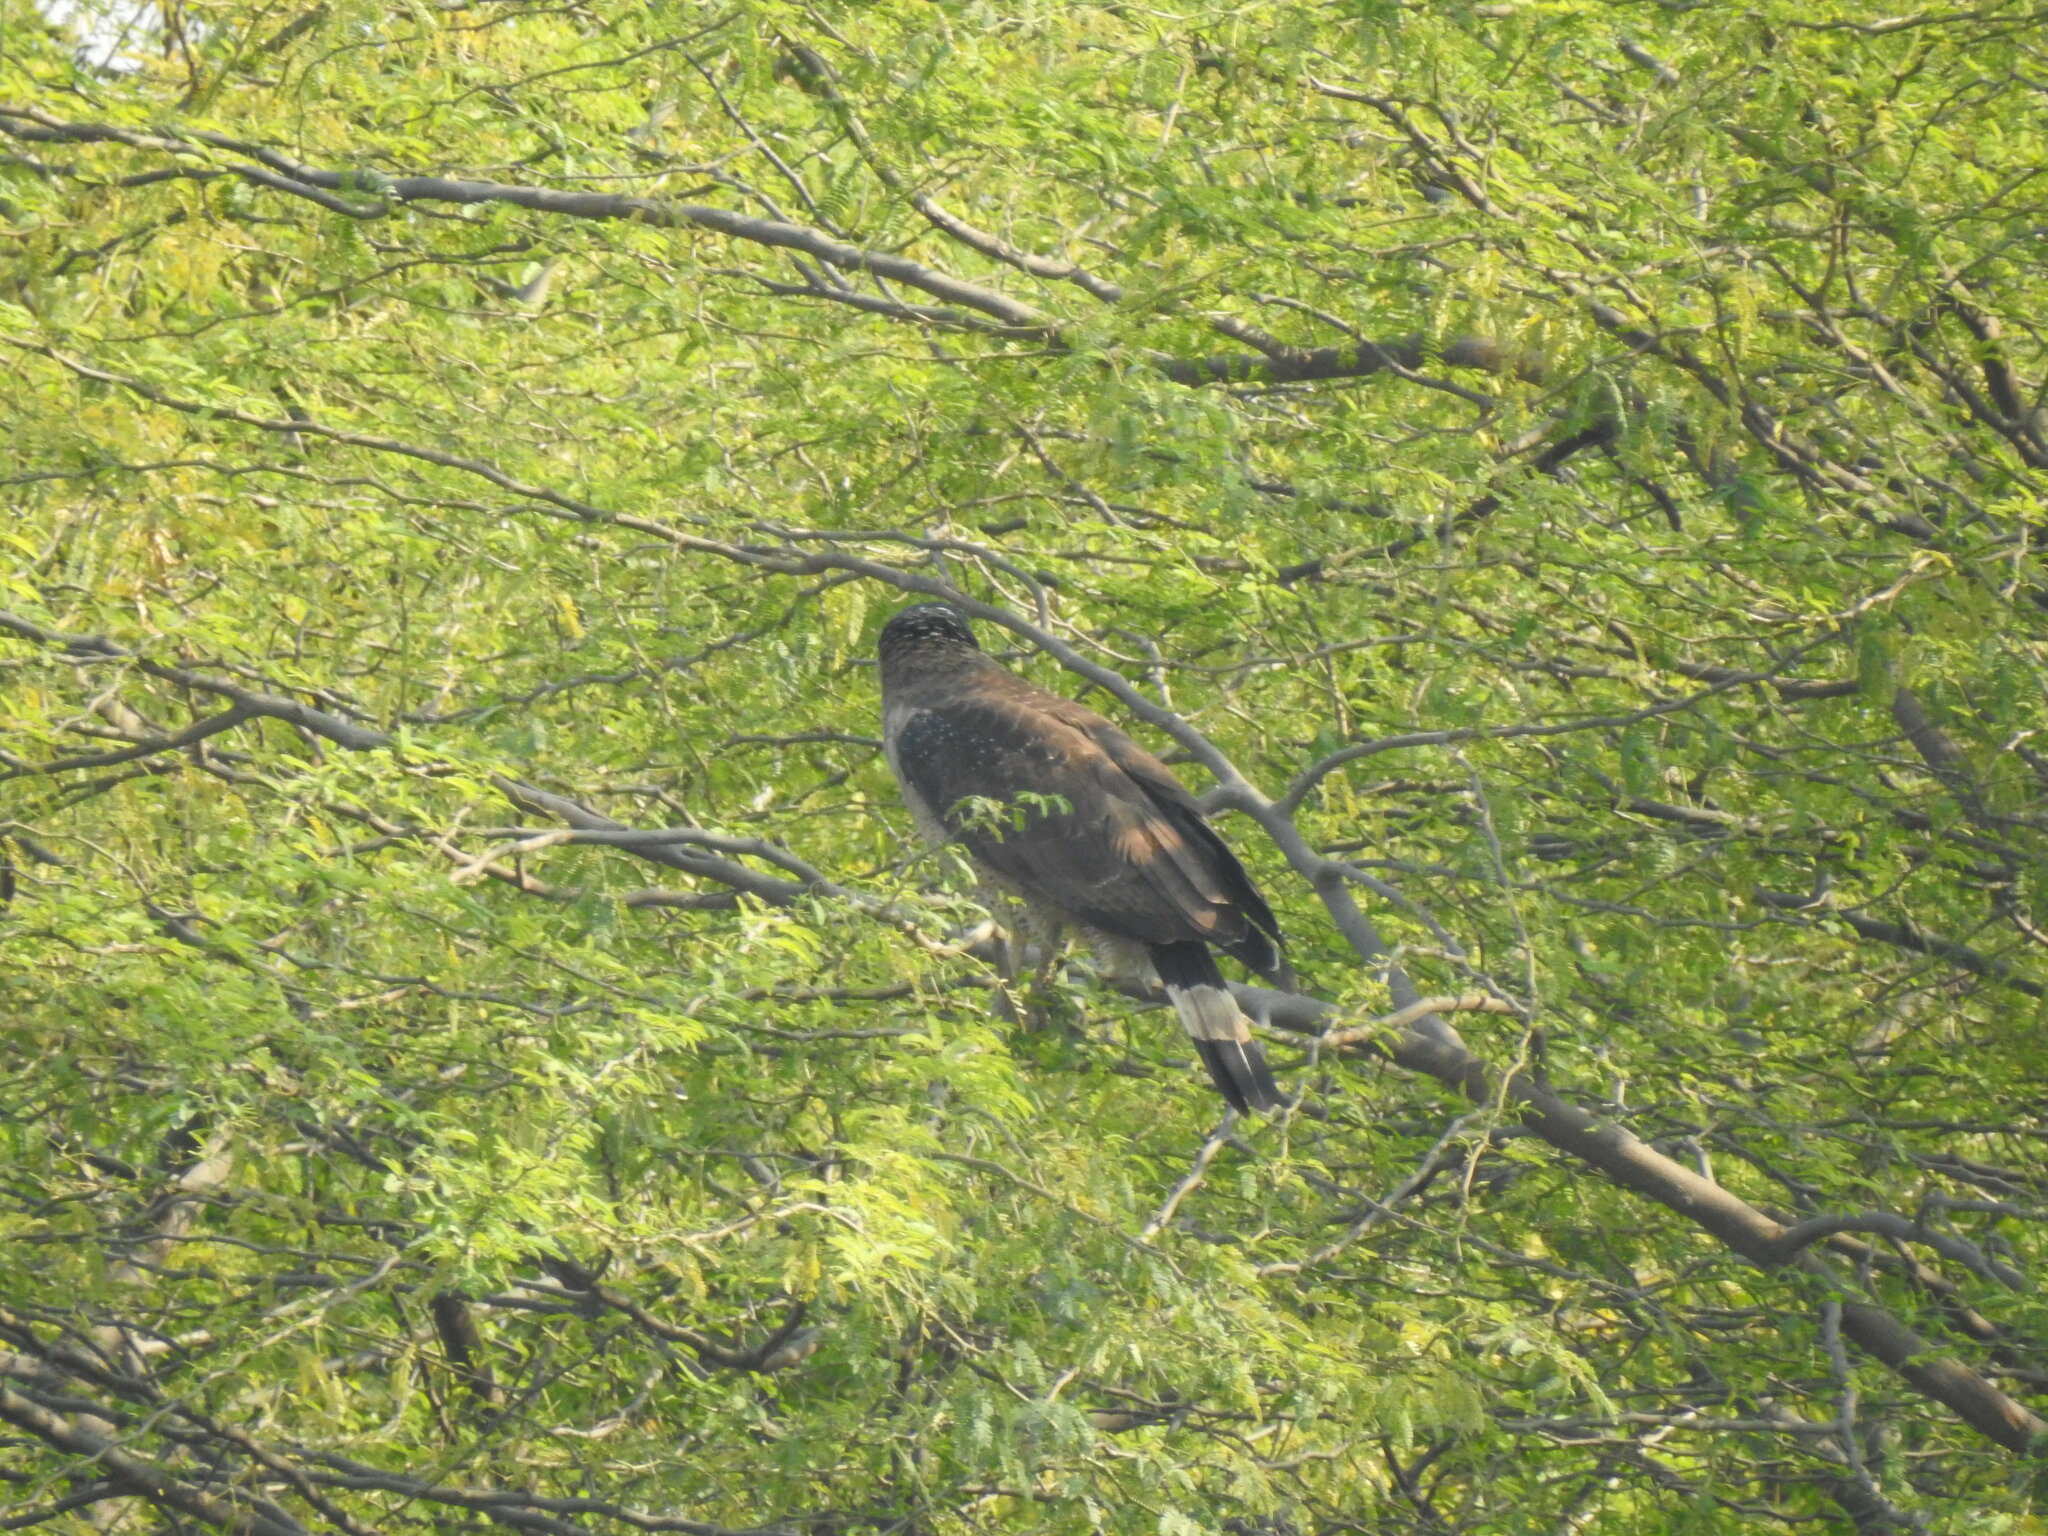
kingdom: Animalia
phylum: Chordata
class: Aves
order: Accipitriformes
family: Accipitridae
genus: Spilornis
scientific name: Spilornis cheela
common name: Crested serpent eagle
